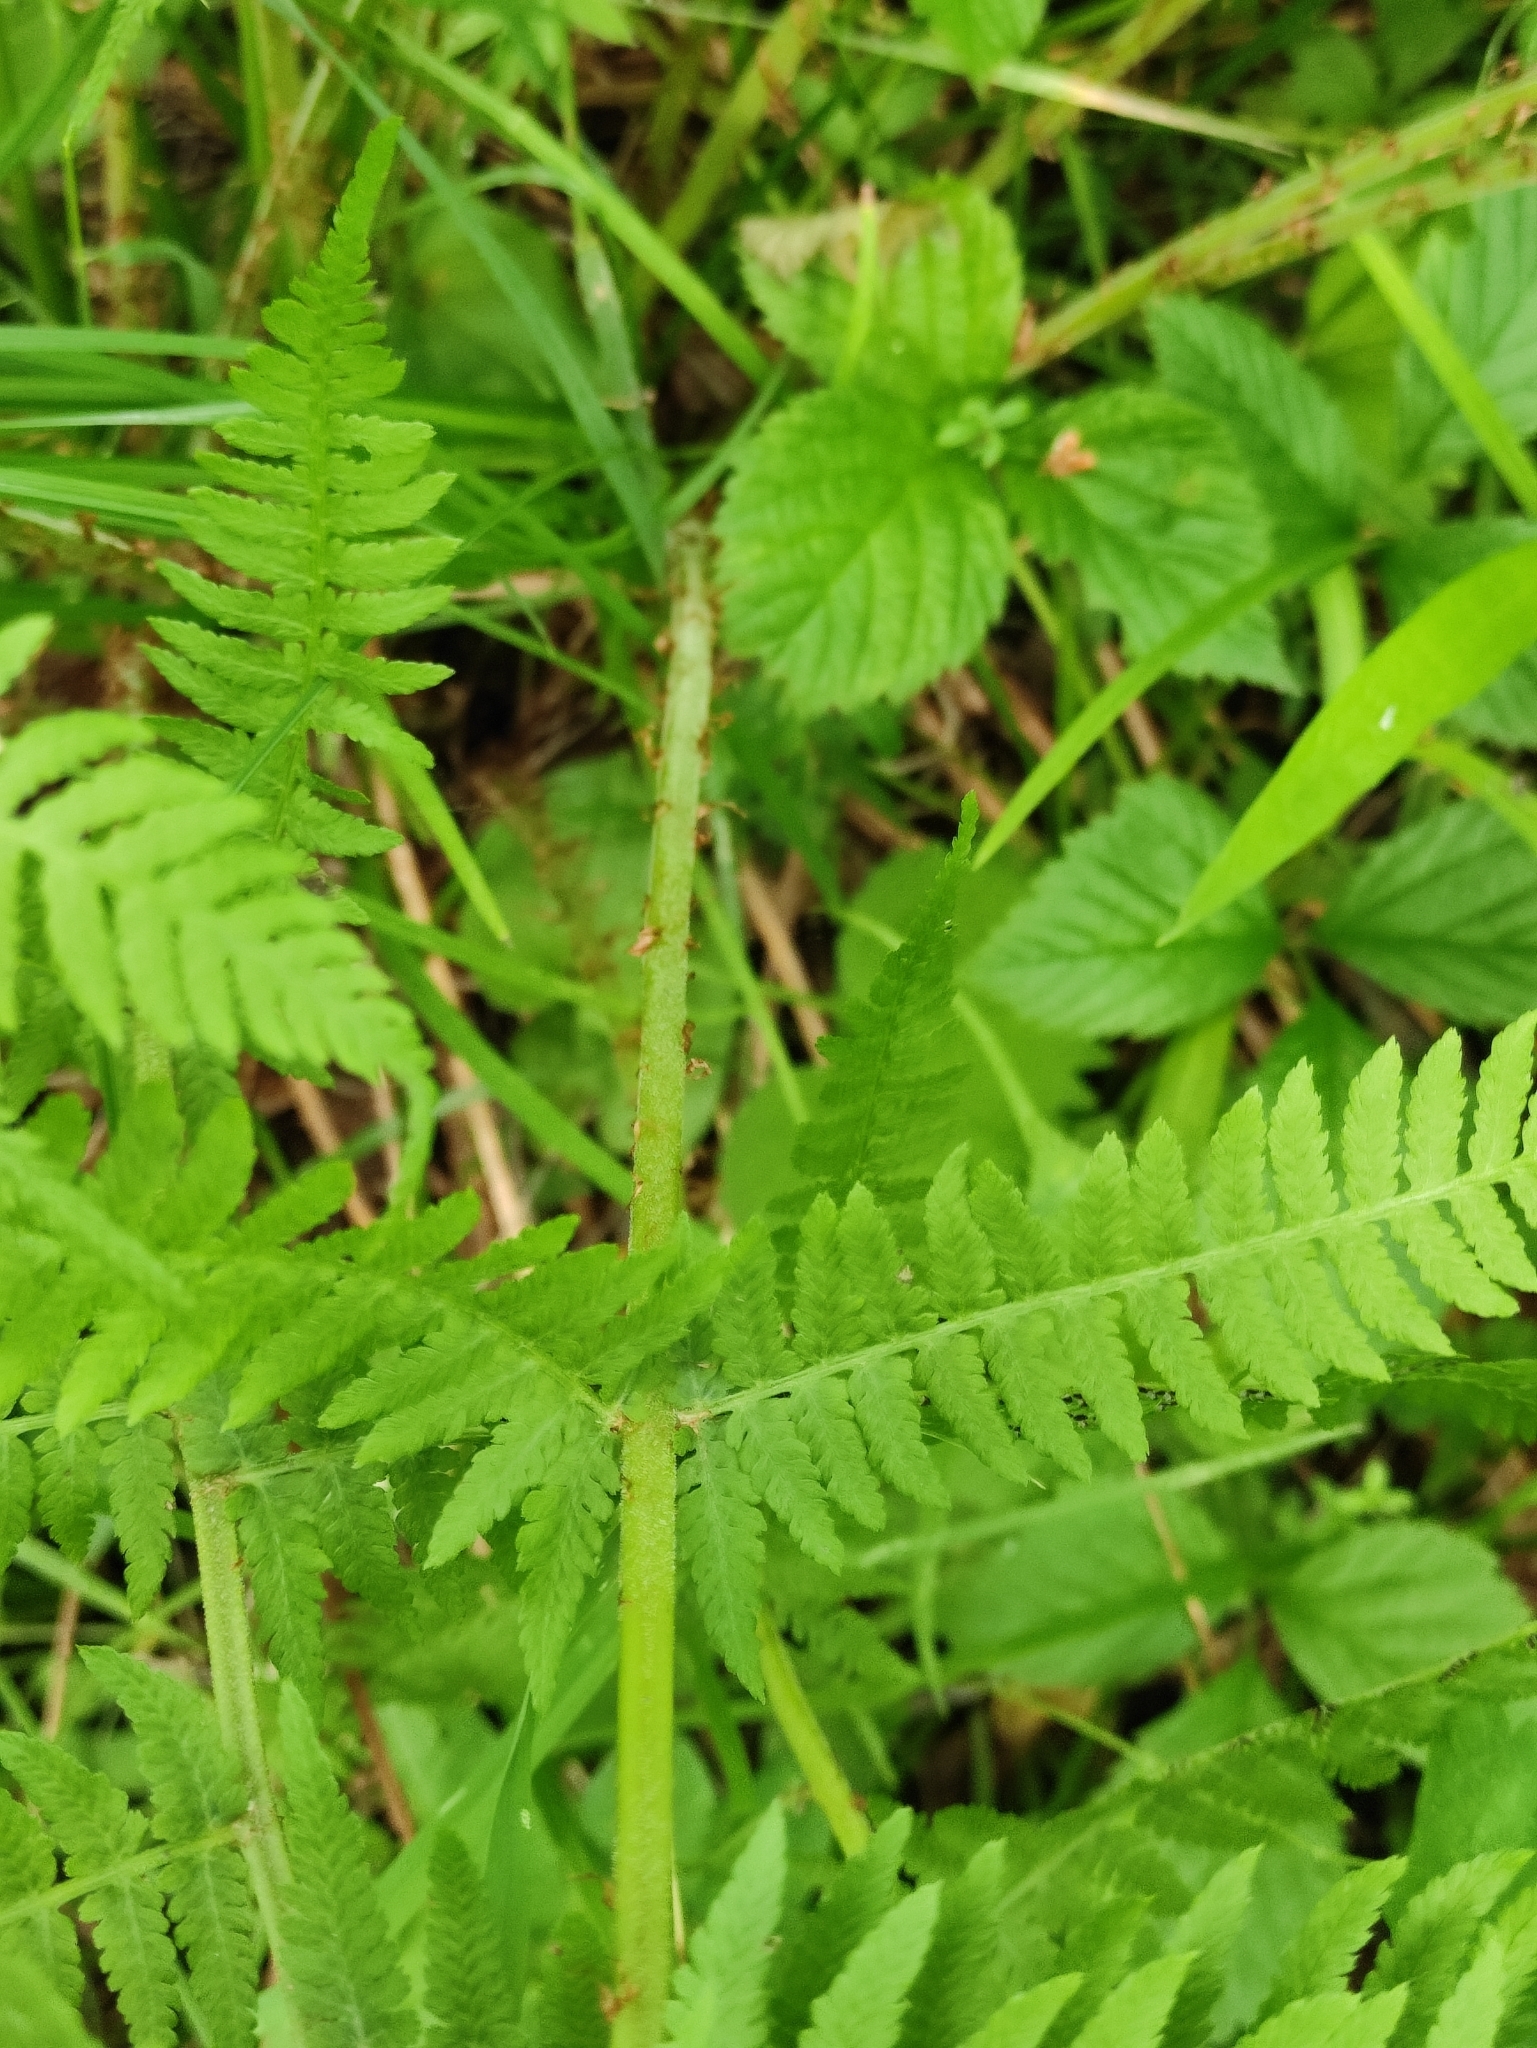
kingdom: Plantae
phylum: Tracheophyta
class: Polypodiopsida
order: Polypodiales
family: Athyriaceae
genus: Athyrium
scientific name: Athyrium filix-femina
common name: Lady fern
